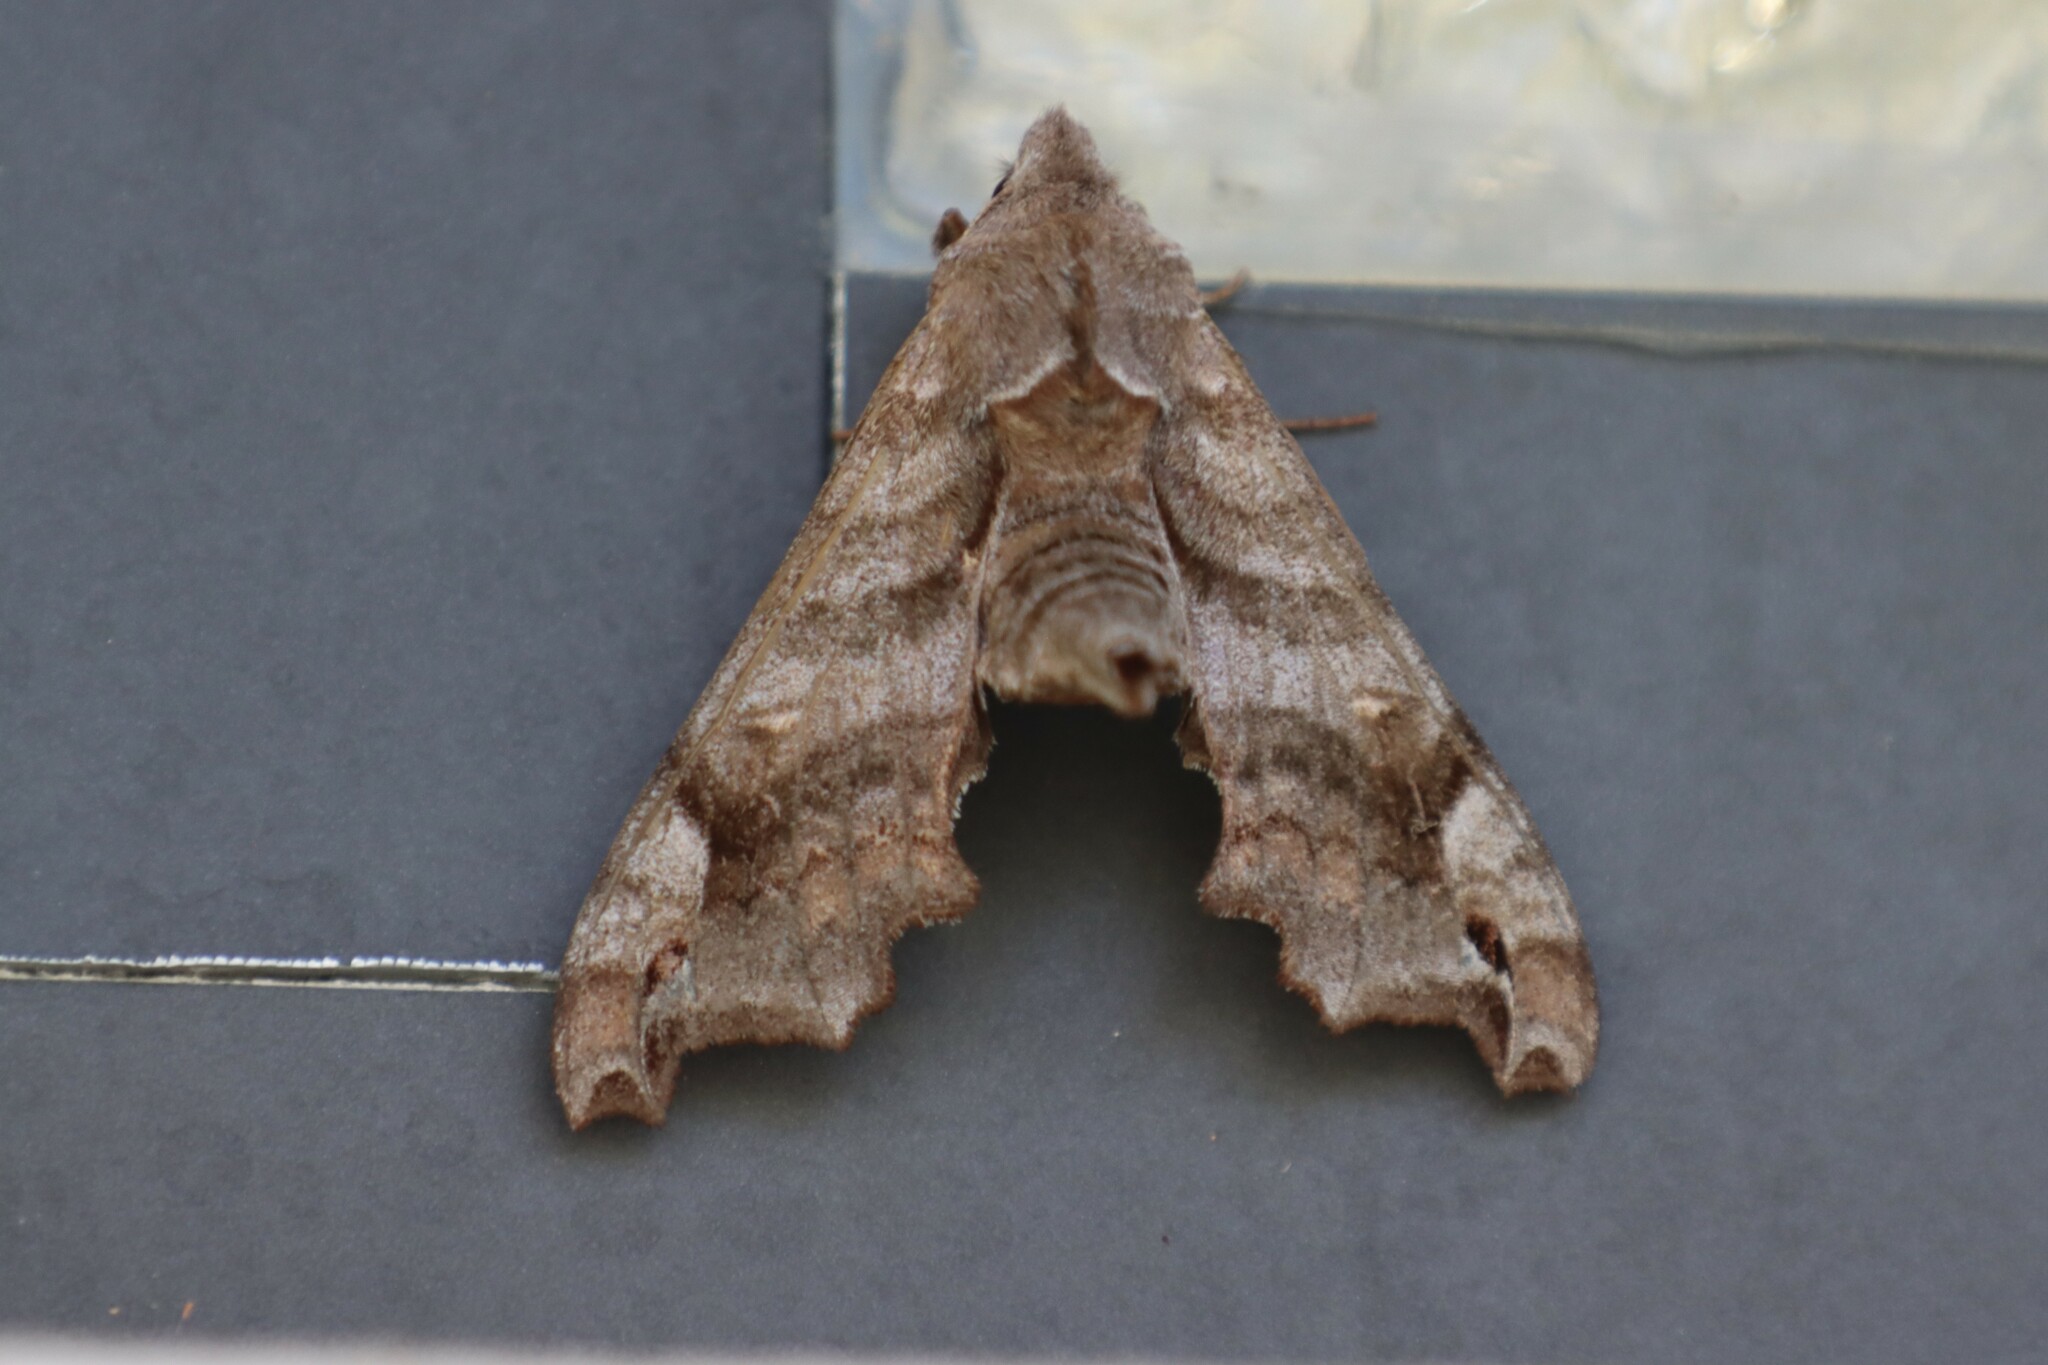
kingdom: Animalia
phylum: Arthropoda
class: Insecta
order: Lepidoptera
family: Sphingidae
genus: Deidamia
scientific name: Deidamia inscriptum
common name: Lettered sphinx
